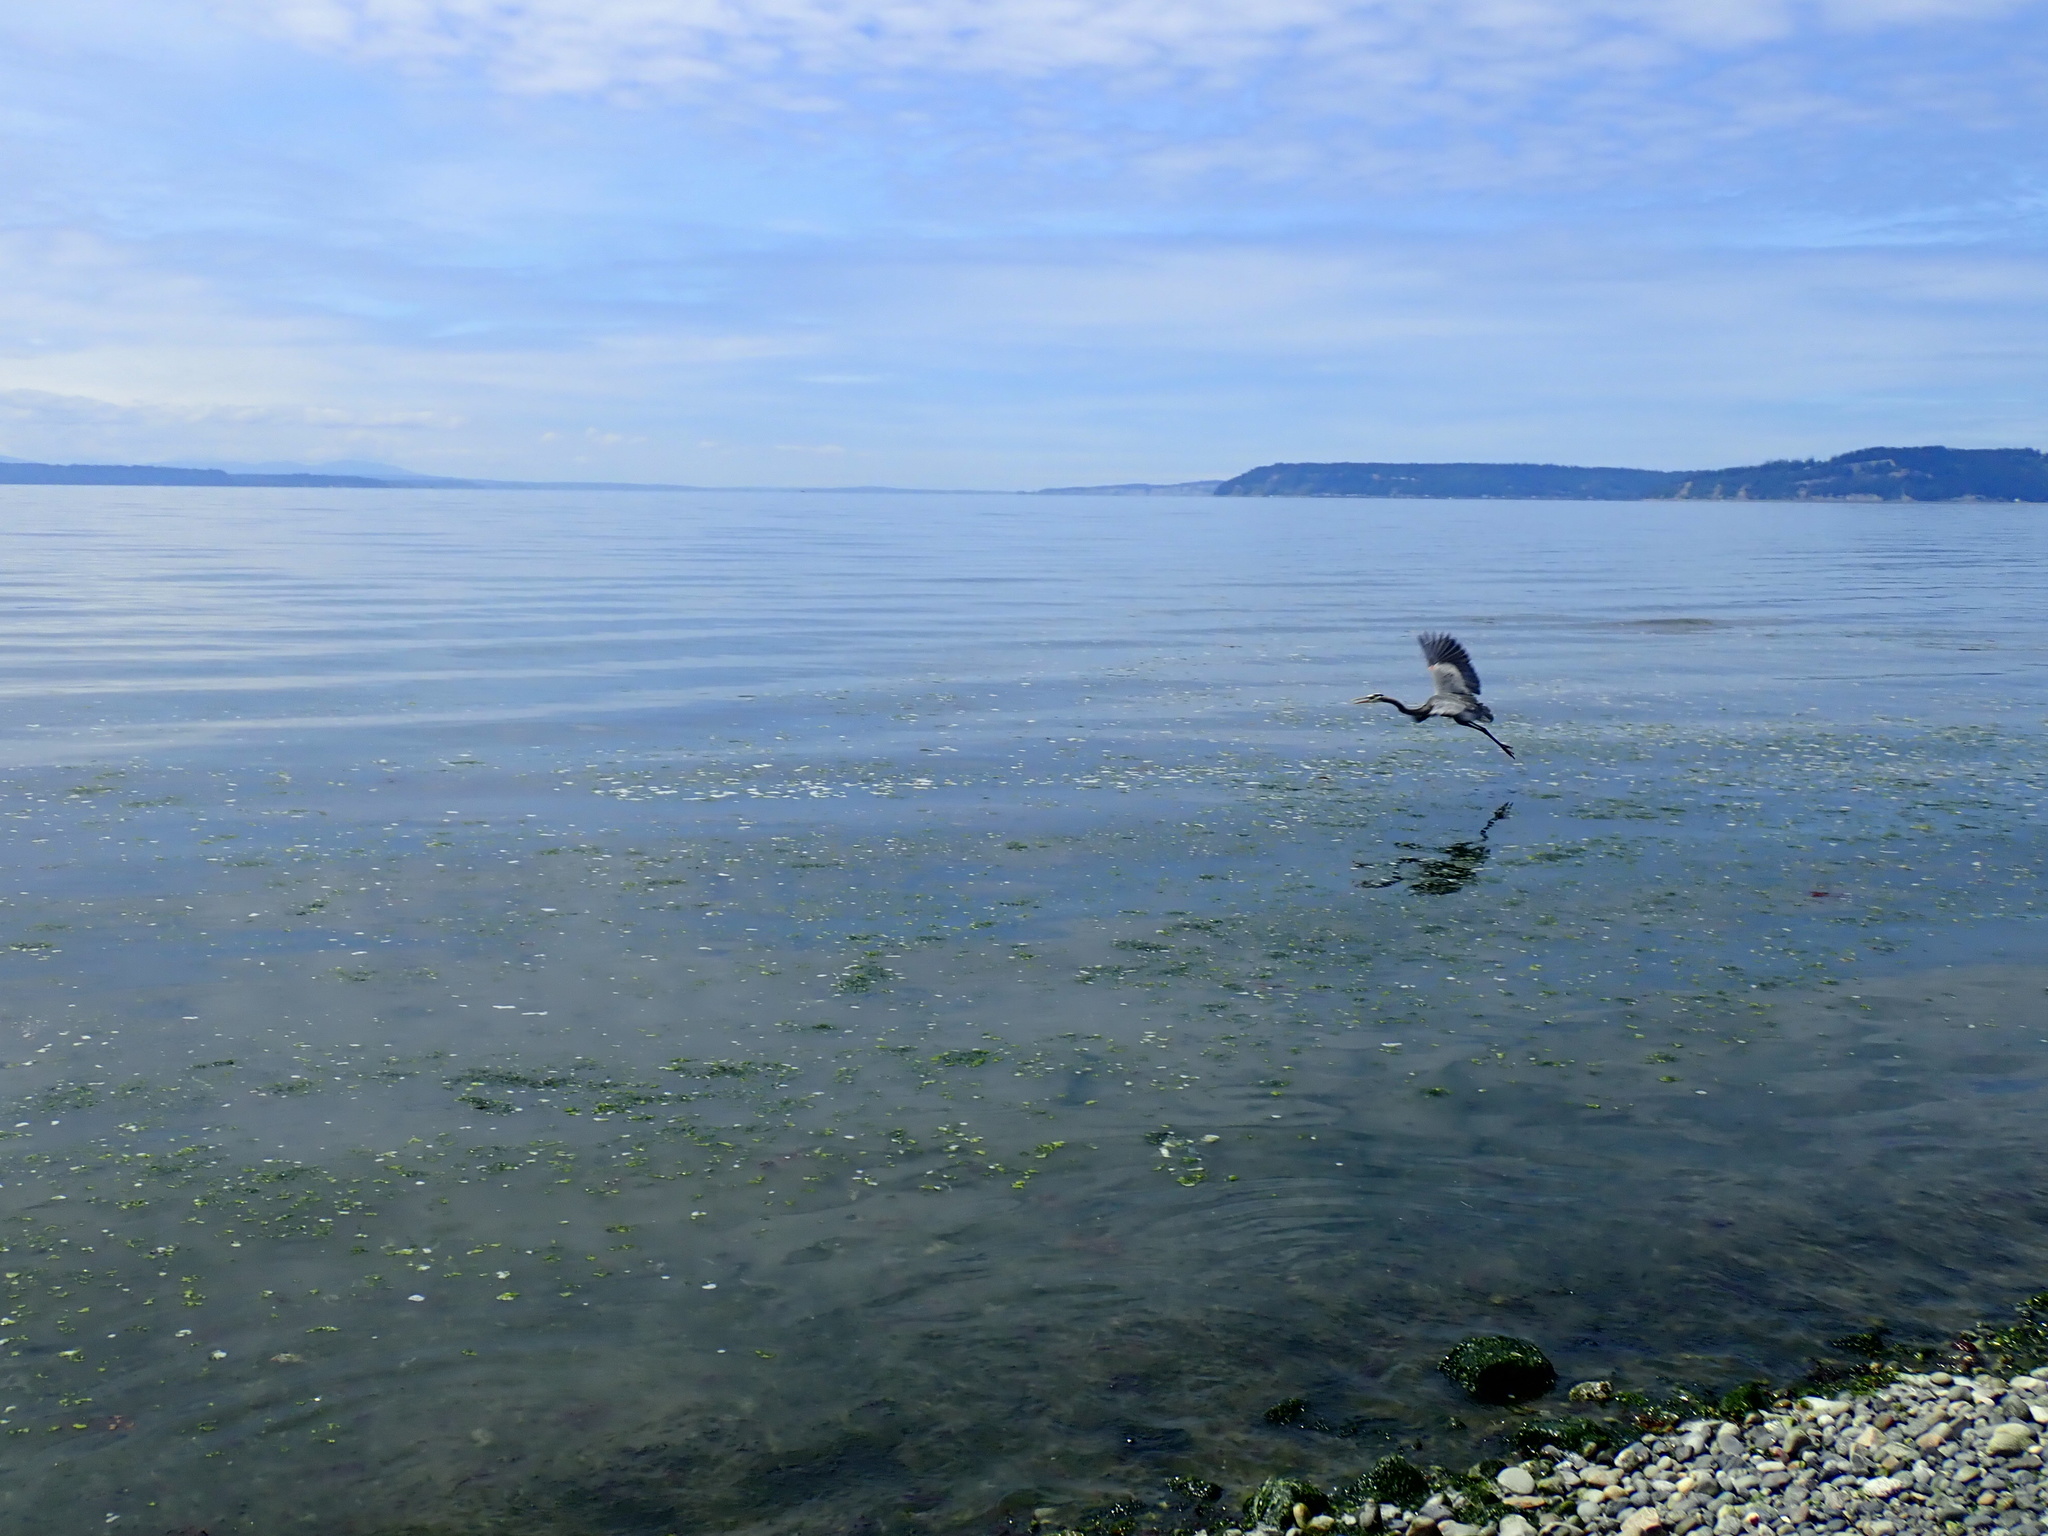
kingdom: Animalia
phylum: Chordata
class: Aves
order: Pelecaniformes
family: Ardeidae
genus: Ardea
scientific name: Ardea herodias
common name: Great blue heron
